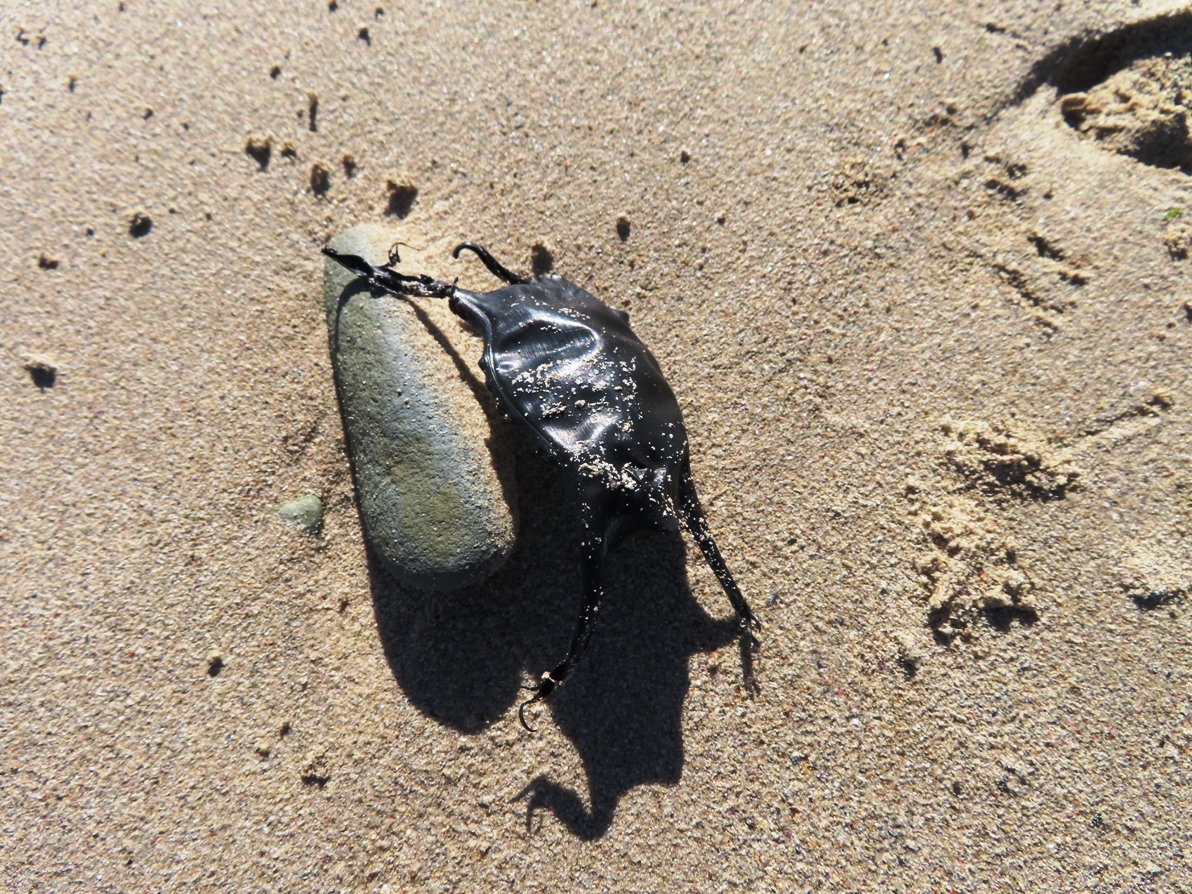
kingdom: Animalia
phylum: Chordata
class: Elasmobranchii
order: Rajiformes
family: Rajidae
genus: Raja
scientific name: Raja ocellifera
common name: Twineye skate
